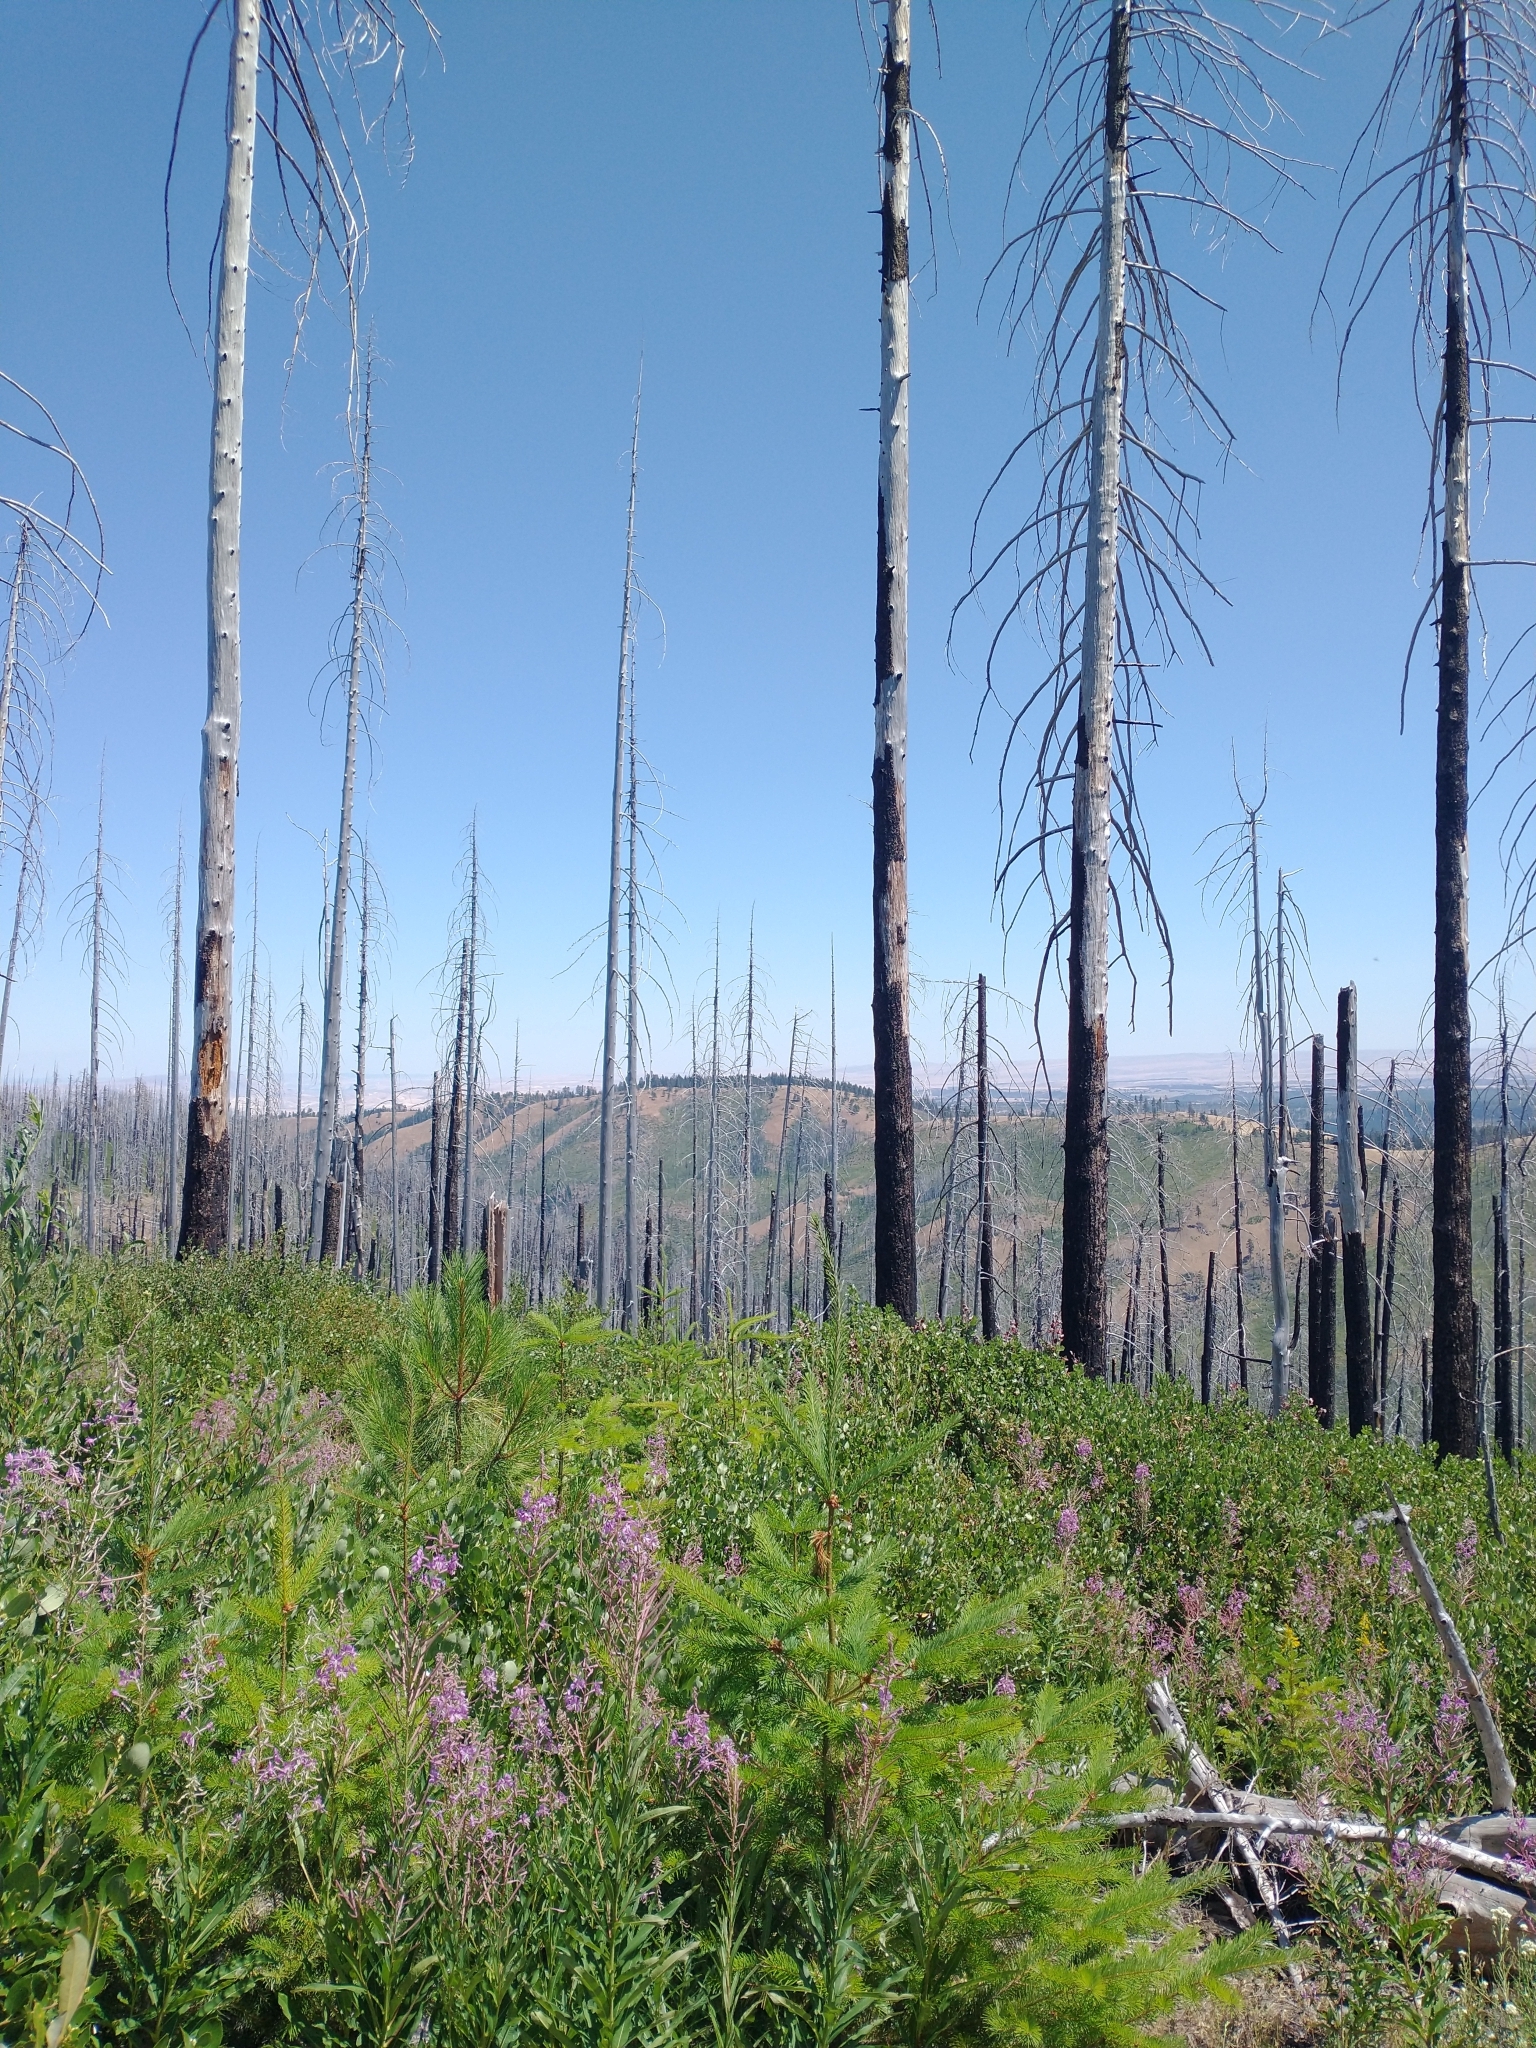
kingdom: Plantae
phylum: Tracheophyta
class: Pinopsida
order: Pinales
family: Pinaceae
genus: Pseudotsuga
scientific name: Pseudotsuga menziesii
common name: Douglas fir
